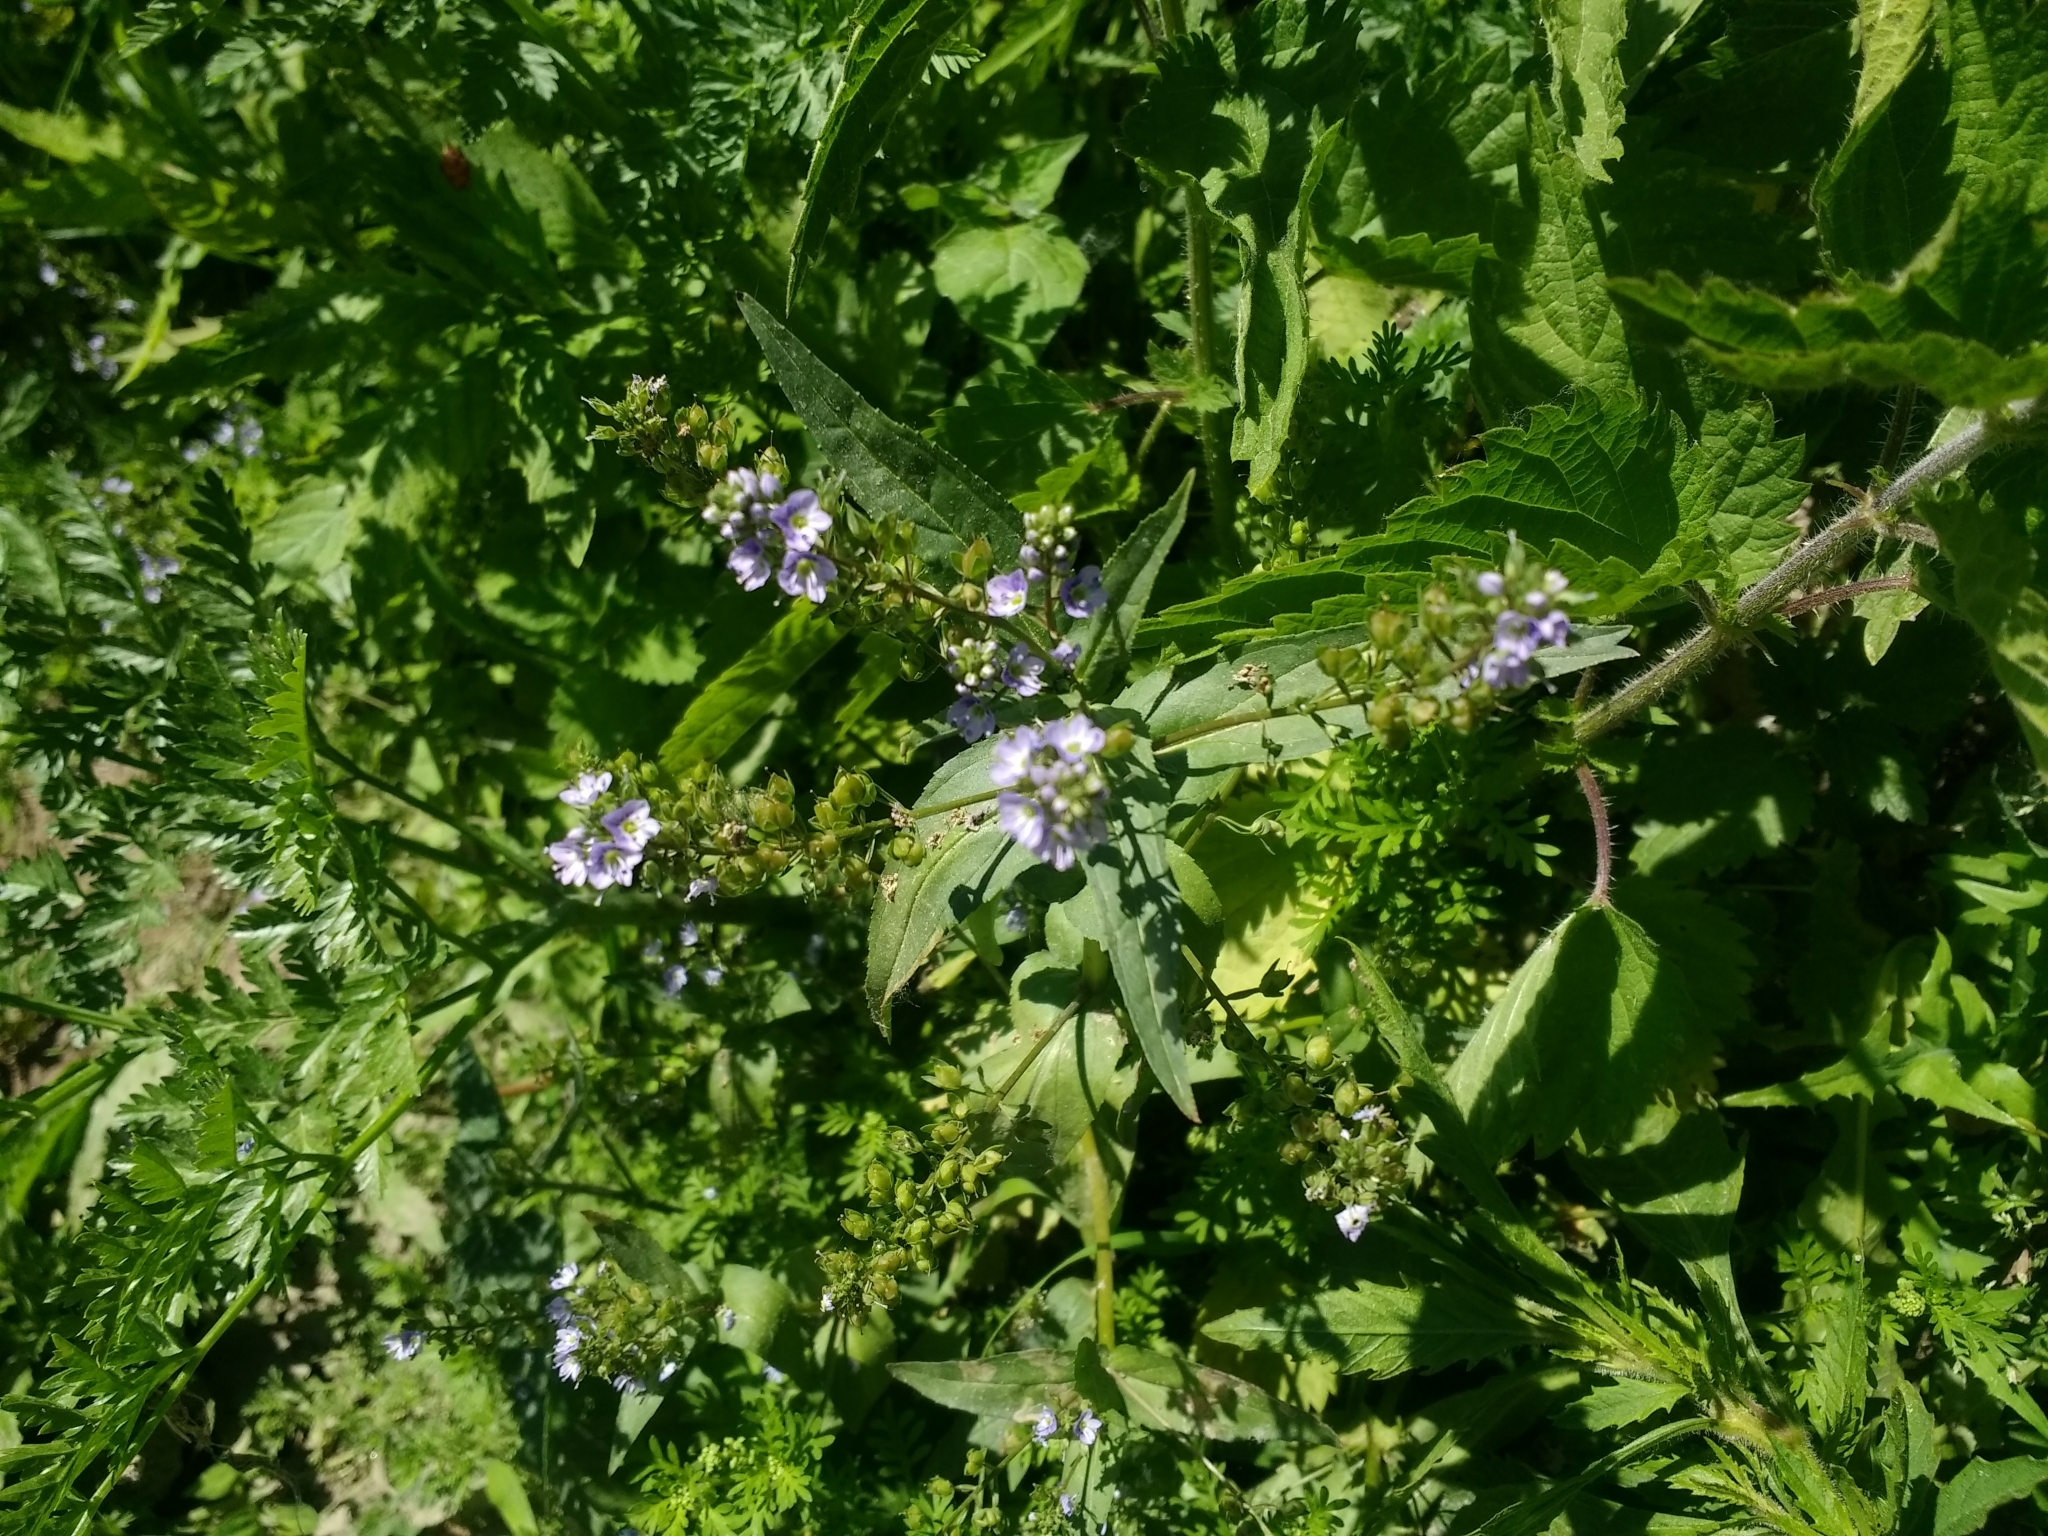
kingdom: Plantae
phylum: Tracheophyta
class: Magnoliopsida
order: Lamiales
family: Plantaginaceae
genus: Veronica
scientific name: Veronica anagallis-aquatica
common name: Water speedwell
